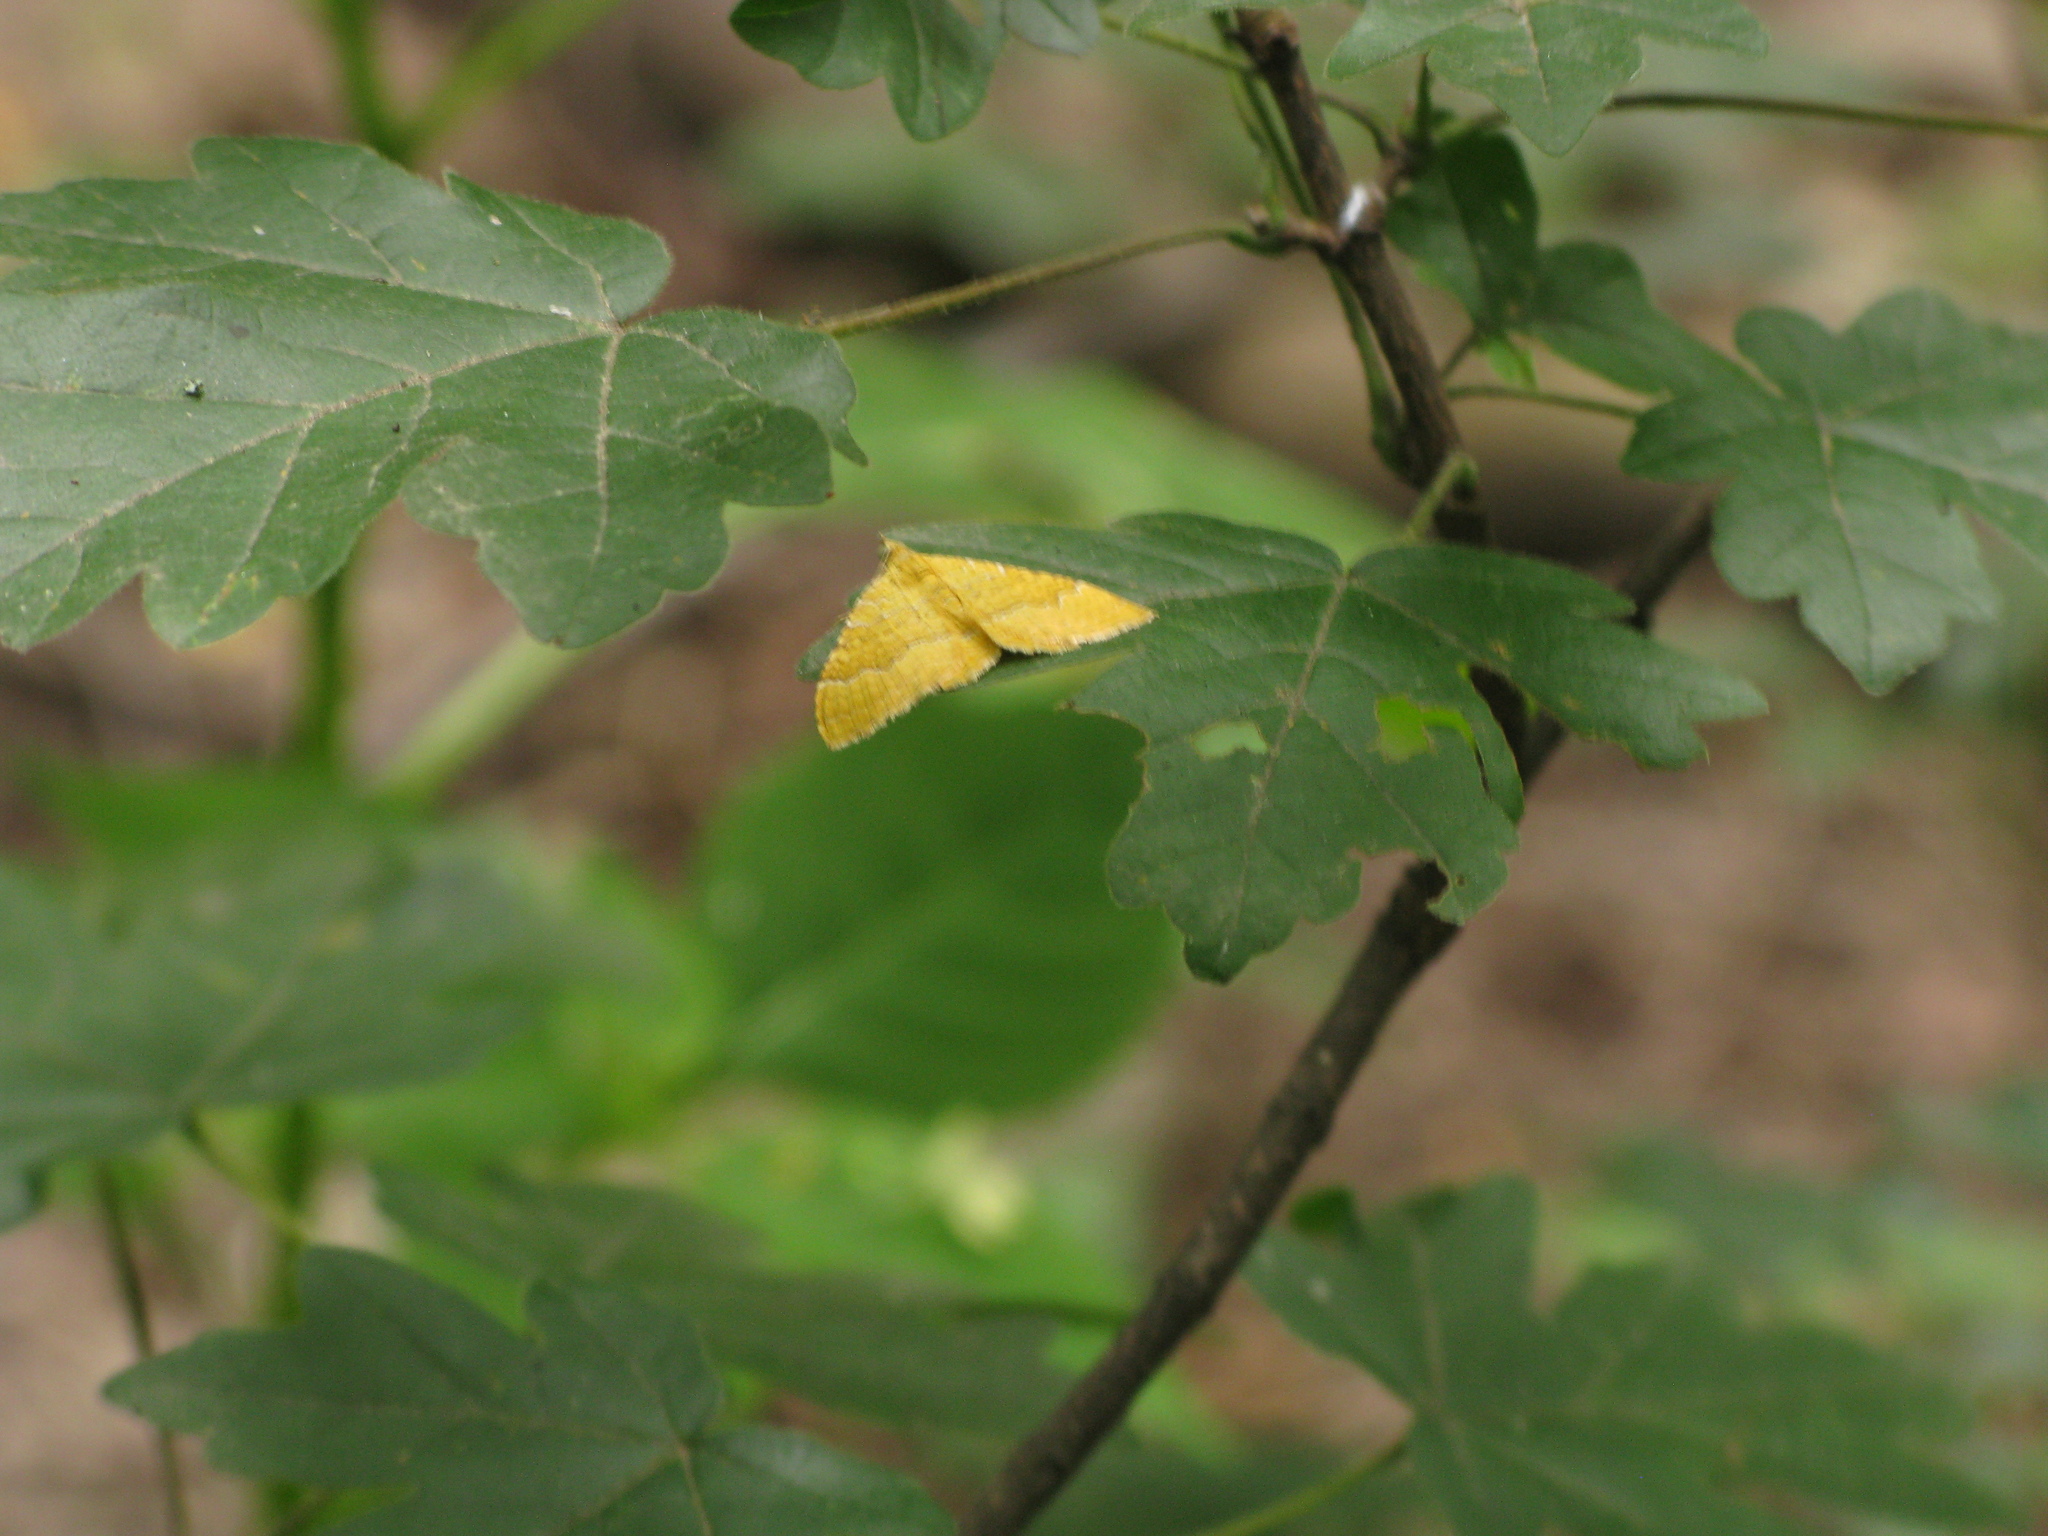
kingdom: Animalia
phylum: Arthropoda
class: Insecta
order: Lepidoptera
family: Geometridae
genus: Camptogramma
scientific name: Camptogramma bilineata
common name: Yellow shell
